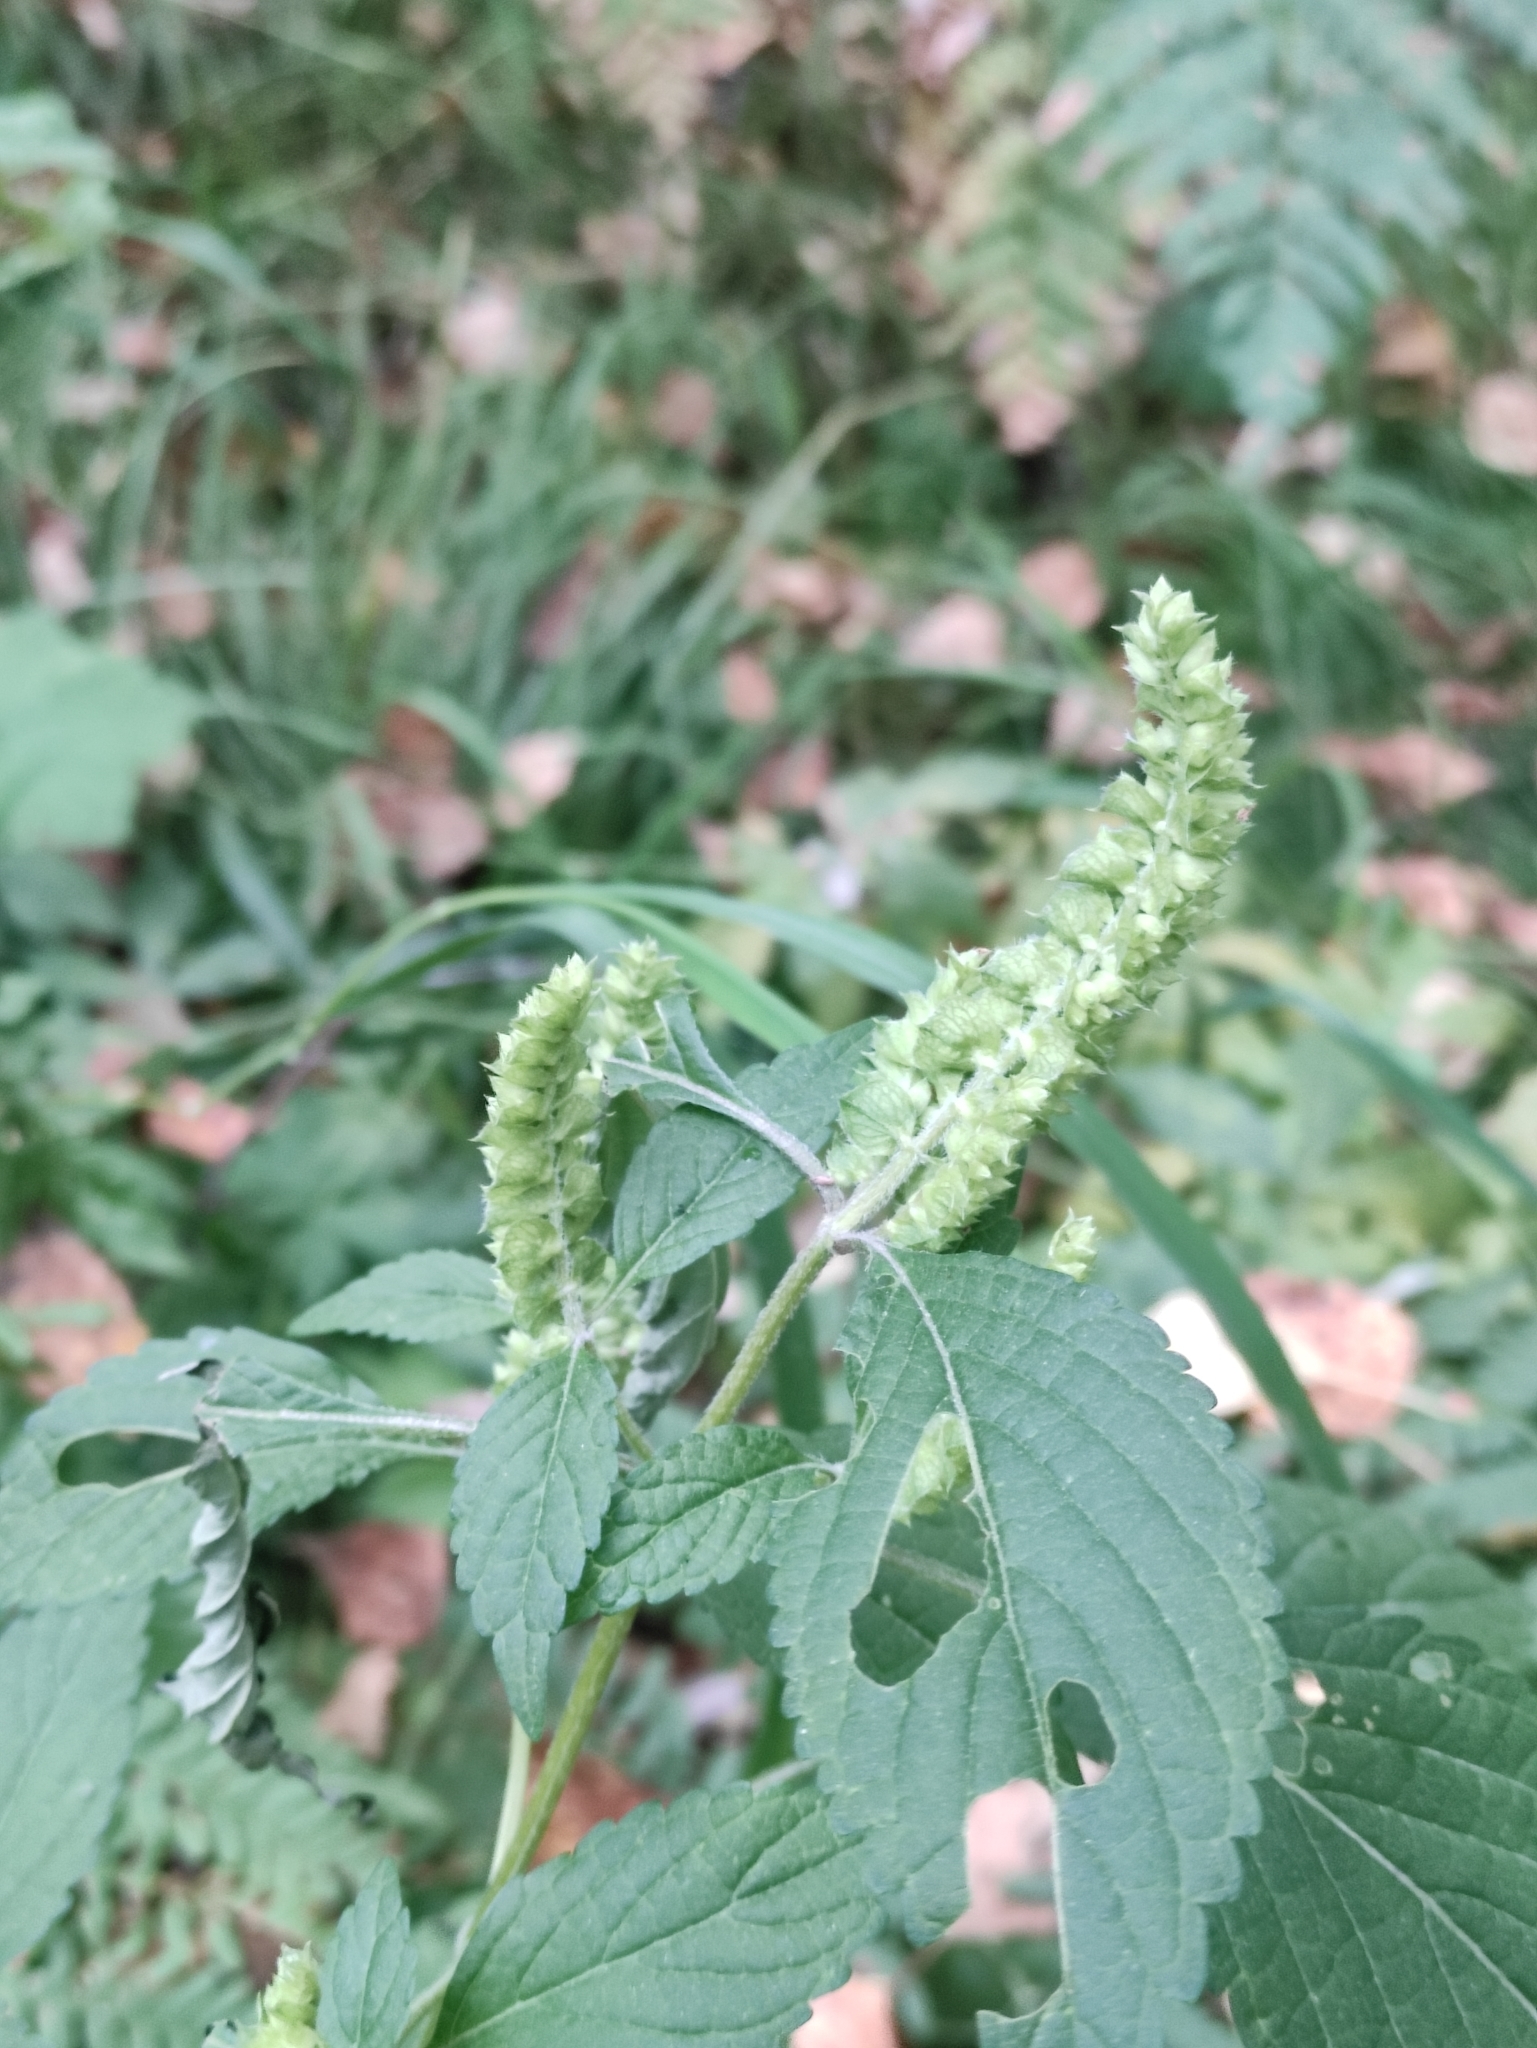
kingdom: Plantae
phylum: Tracheophyta
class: Magnoliopsida
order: Lamiales
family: Lamiaceae
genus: Elsholtzia
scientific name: Elsholtzia ciliata
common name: Ciliate elsholtzia
